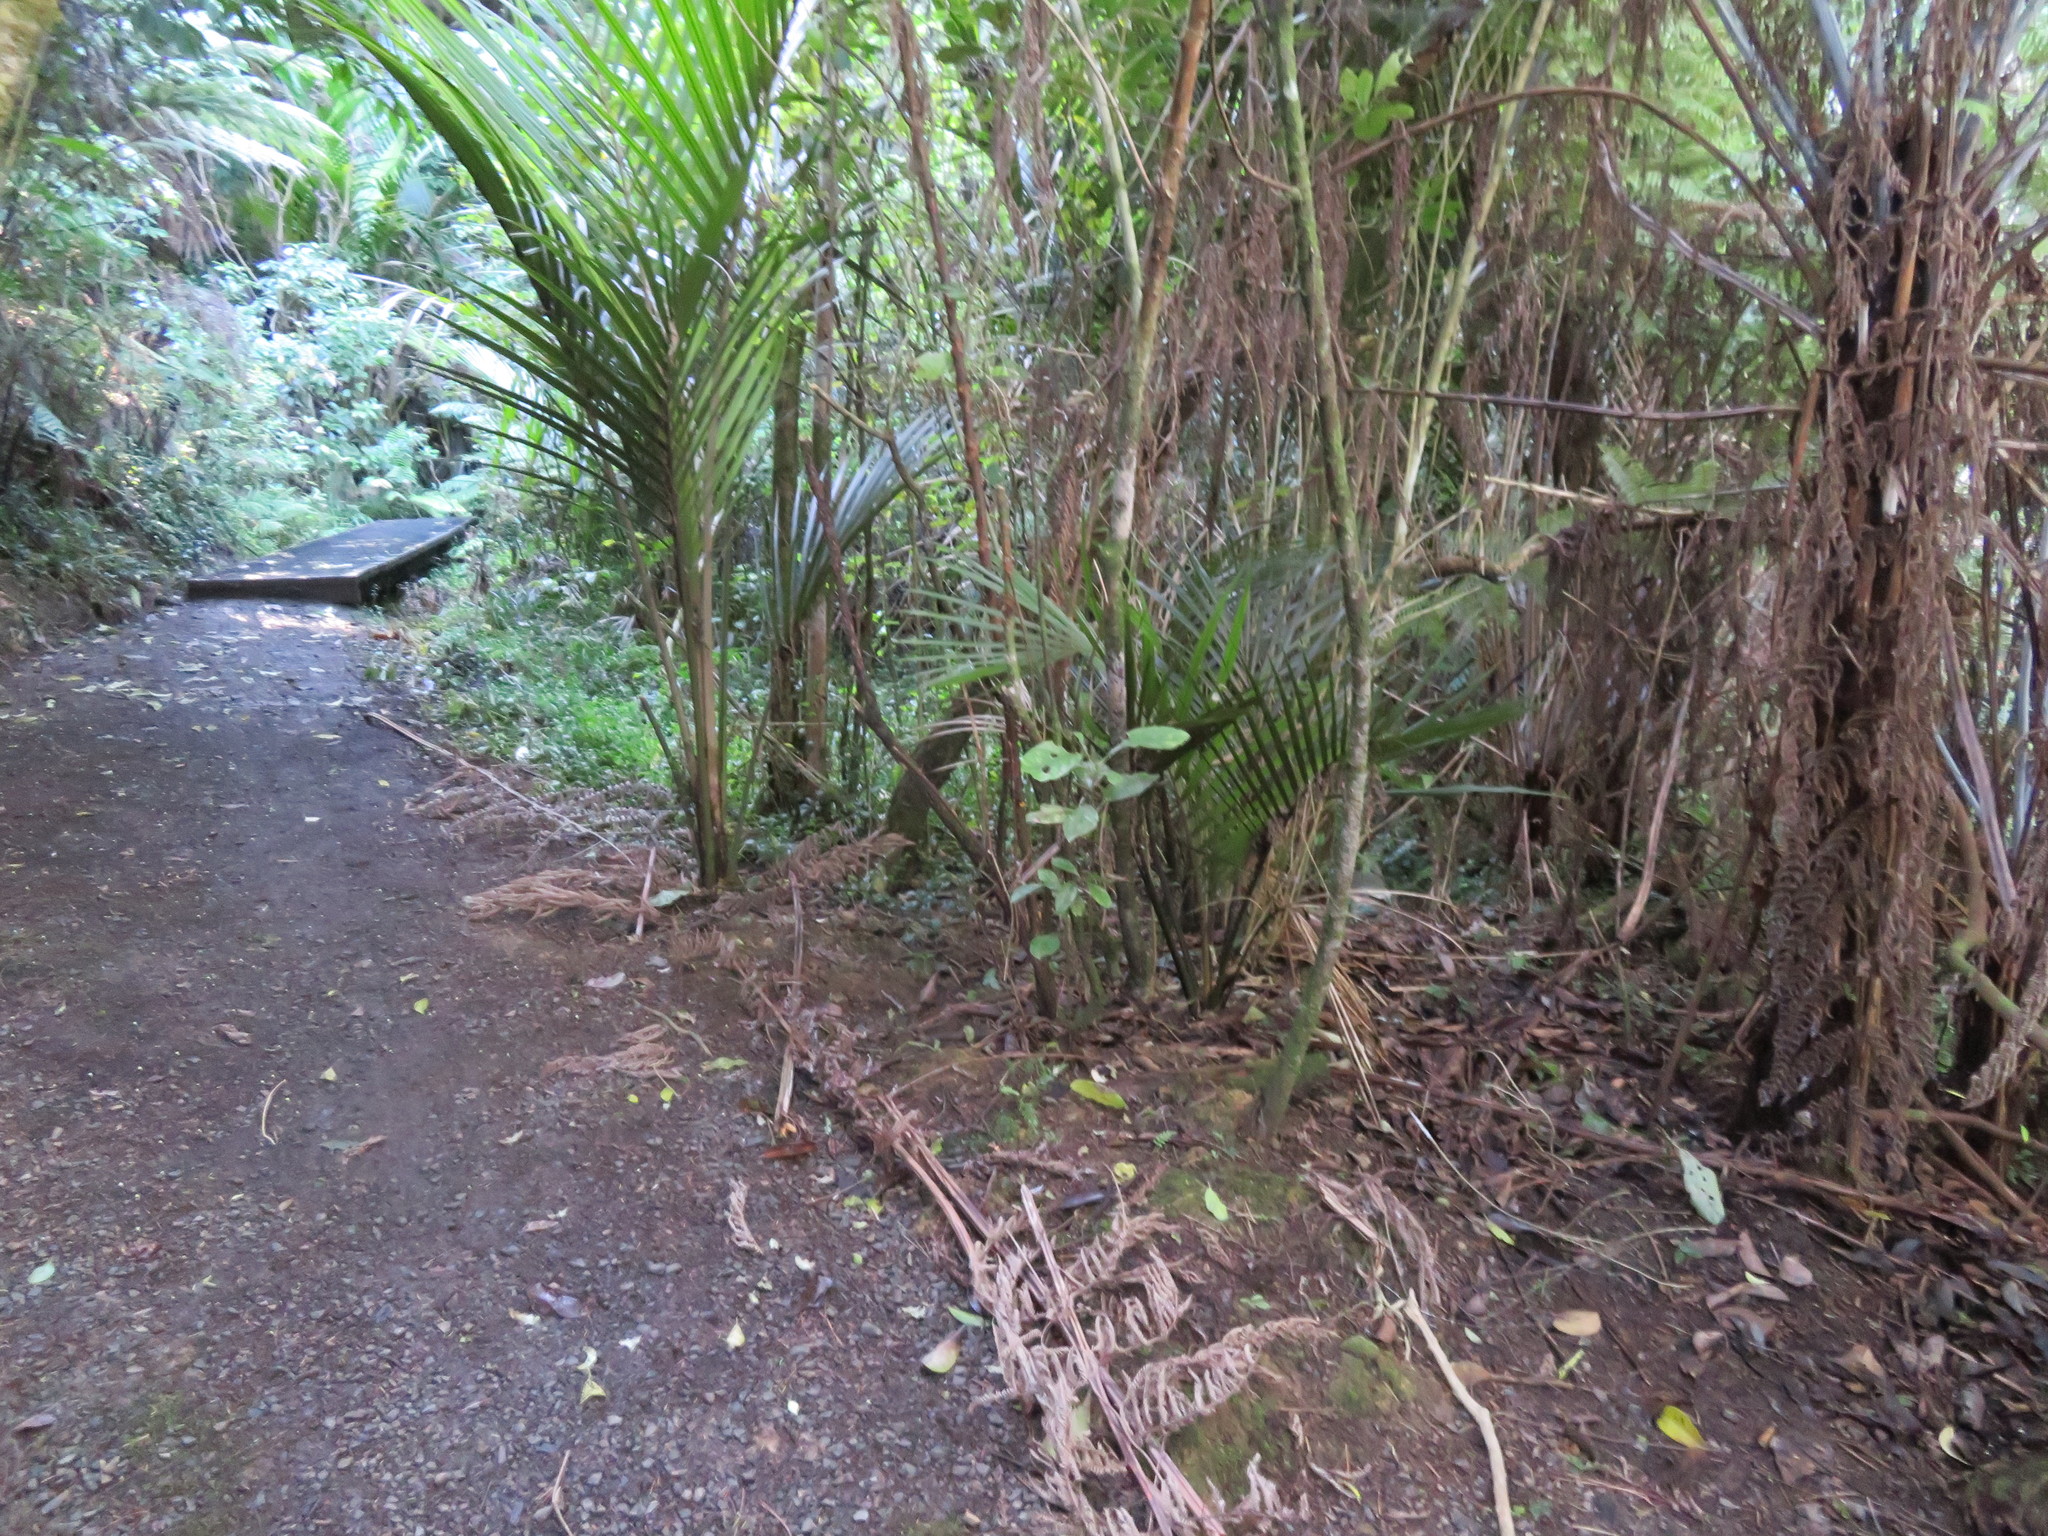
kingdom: Plantae
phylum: Tracheophyta
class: Liliopsida
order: Arecales
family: Arecaceae
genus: Rhopalostylis
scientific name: Rhopalostylis sapida
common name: Feather-duster palm
